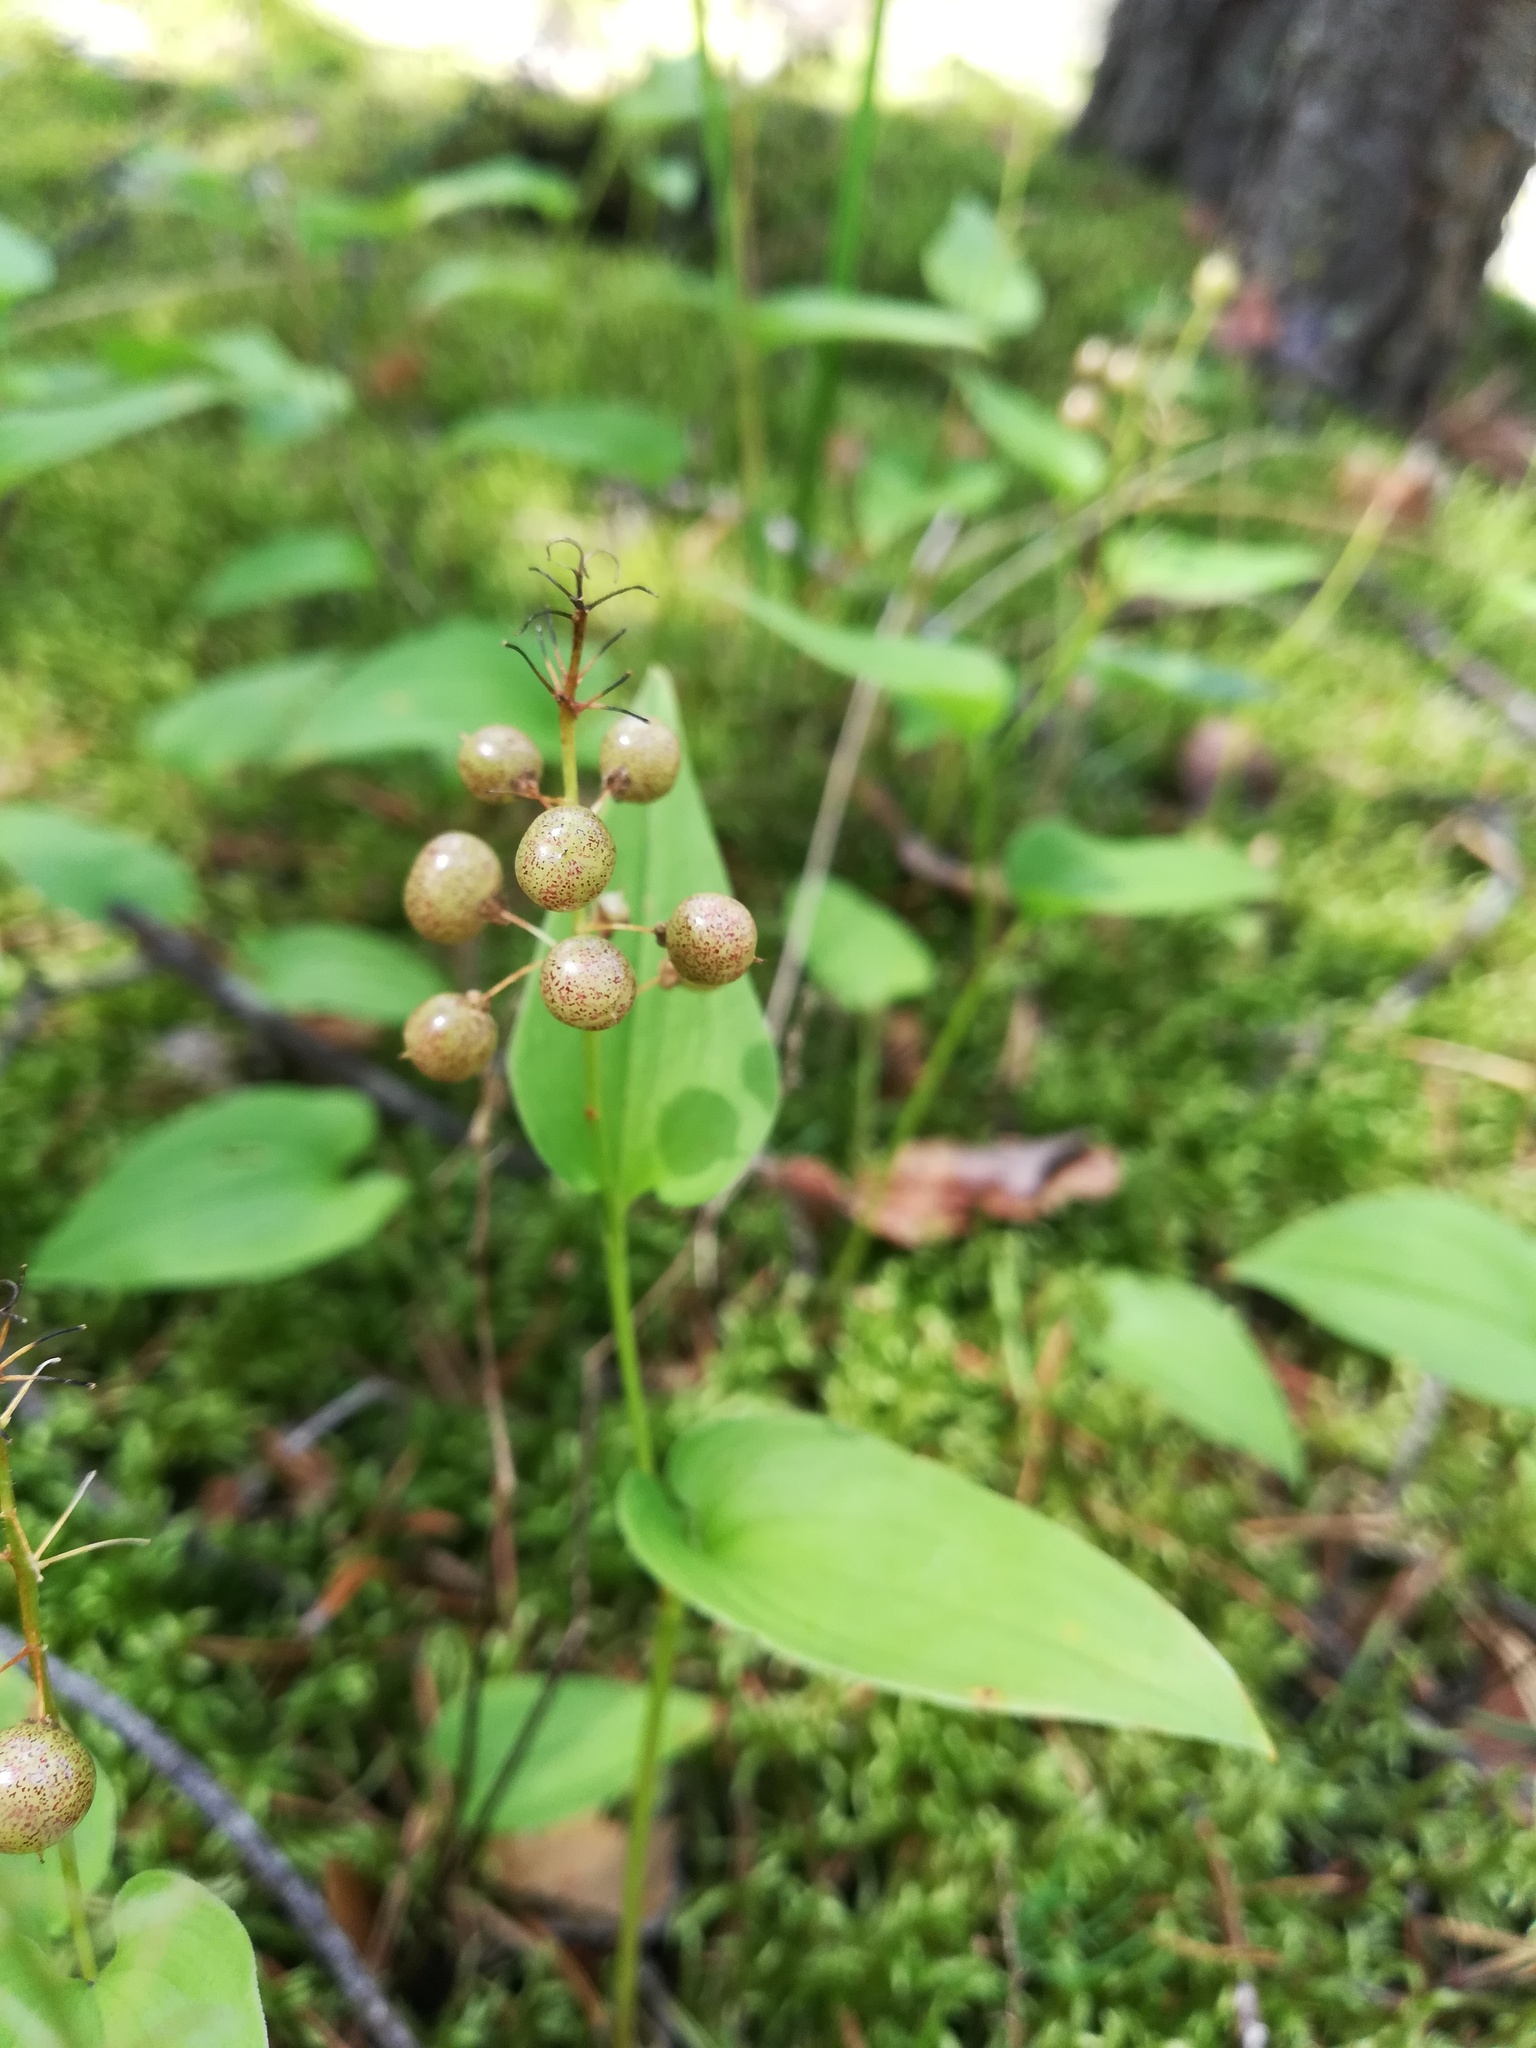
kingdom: Plantae
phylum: Tracheophyta
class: Liliopsida
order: Asparagales
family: Asparagaceae
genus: Maianthemum
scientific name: Maianthemum bifolium
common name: May lily
